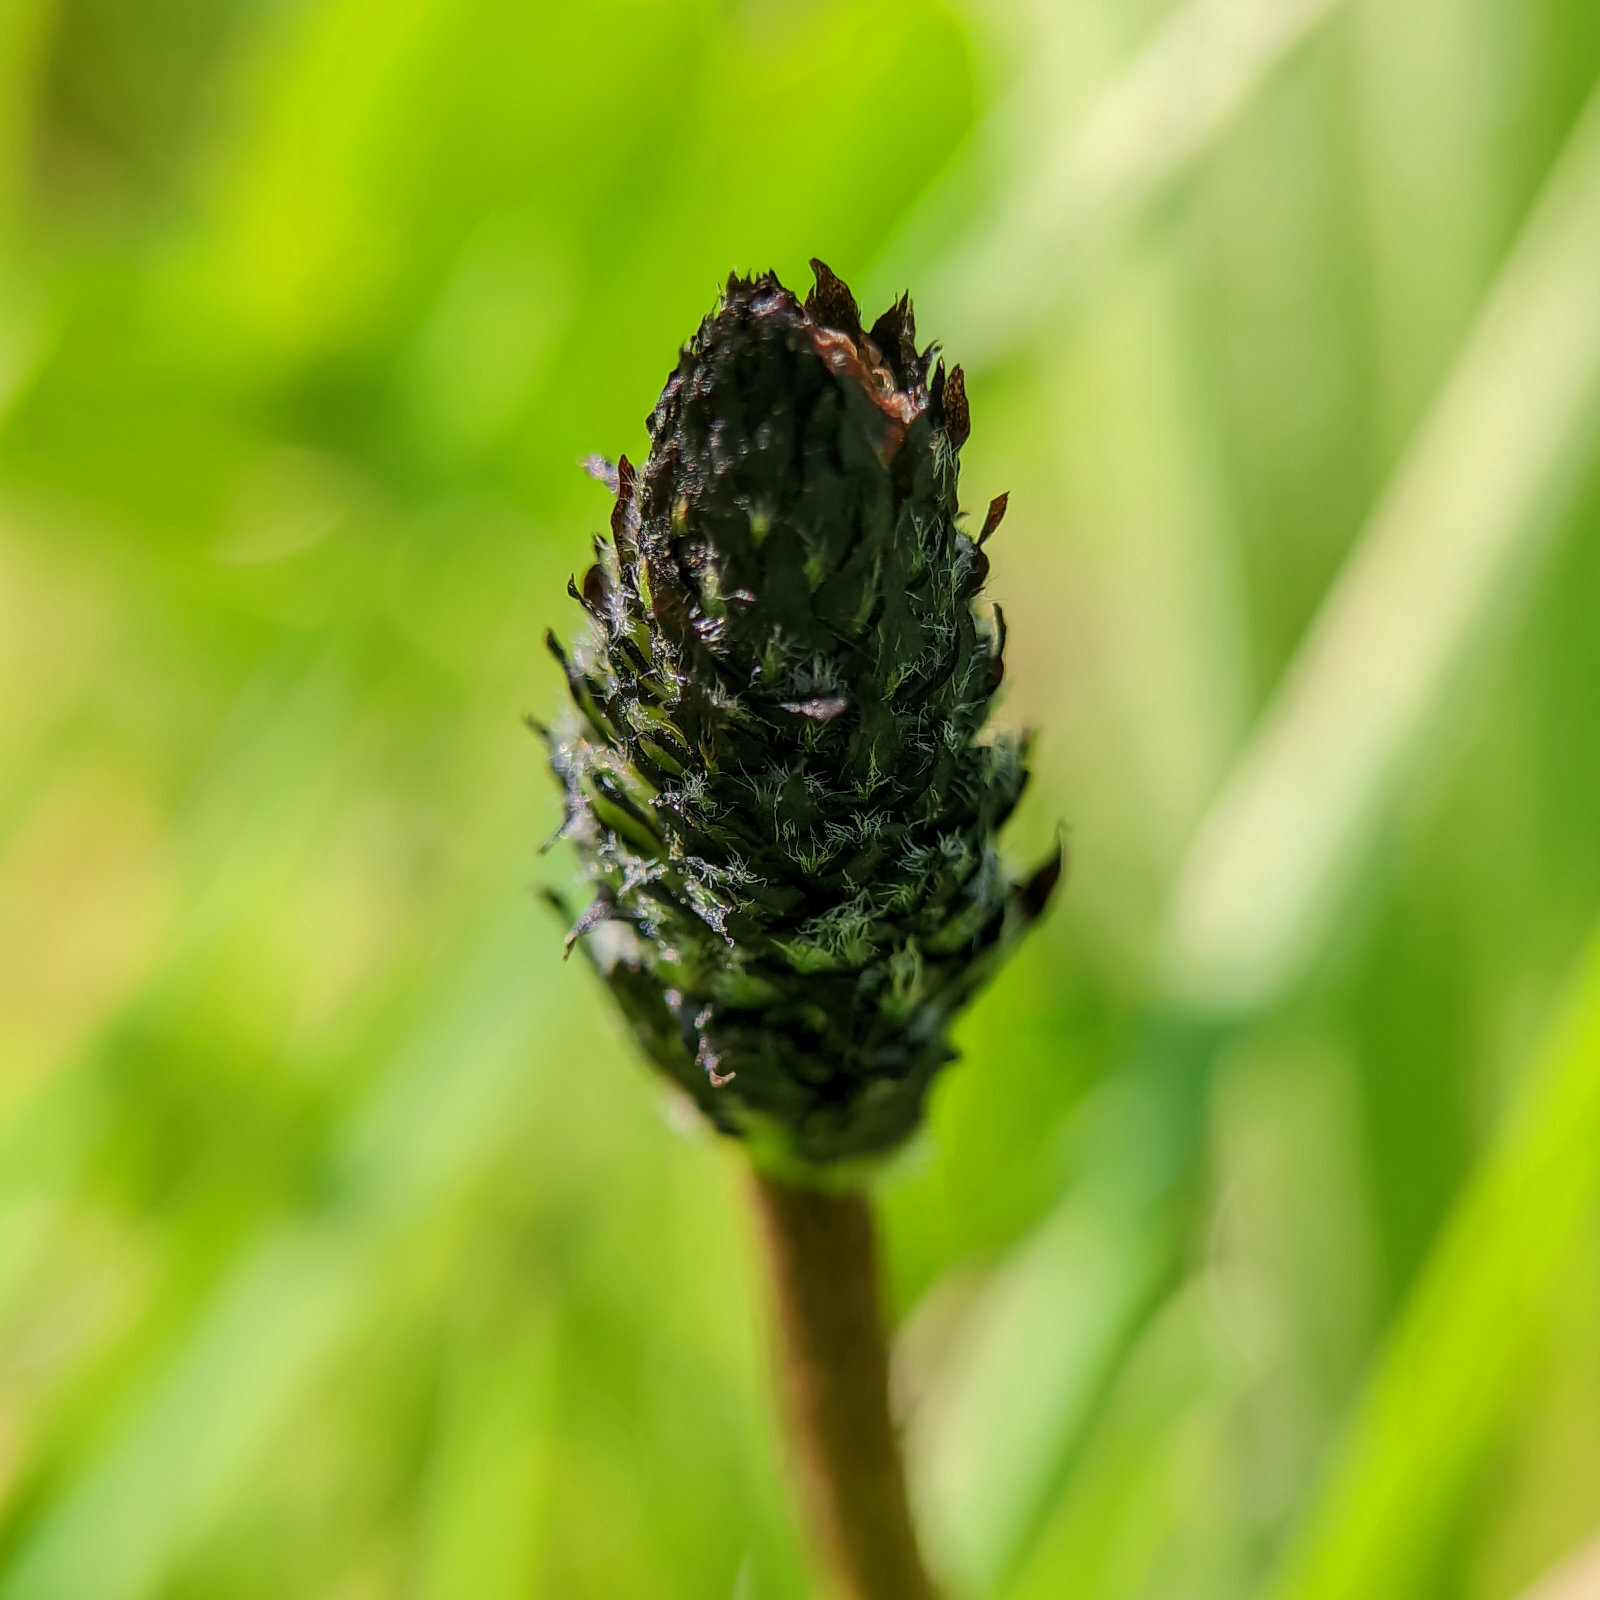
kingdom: Plantae
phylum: Tracheophyta
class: Magnoliopsida
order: Lamiales
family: Plantaginaceae
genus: Plantago
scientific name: Plantago lanceolata
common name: Ribwort plantain
